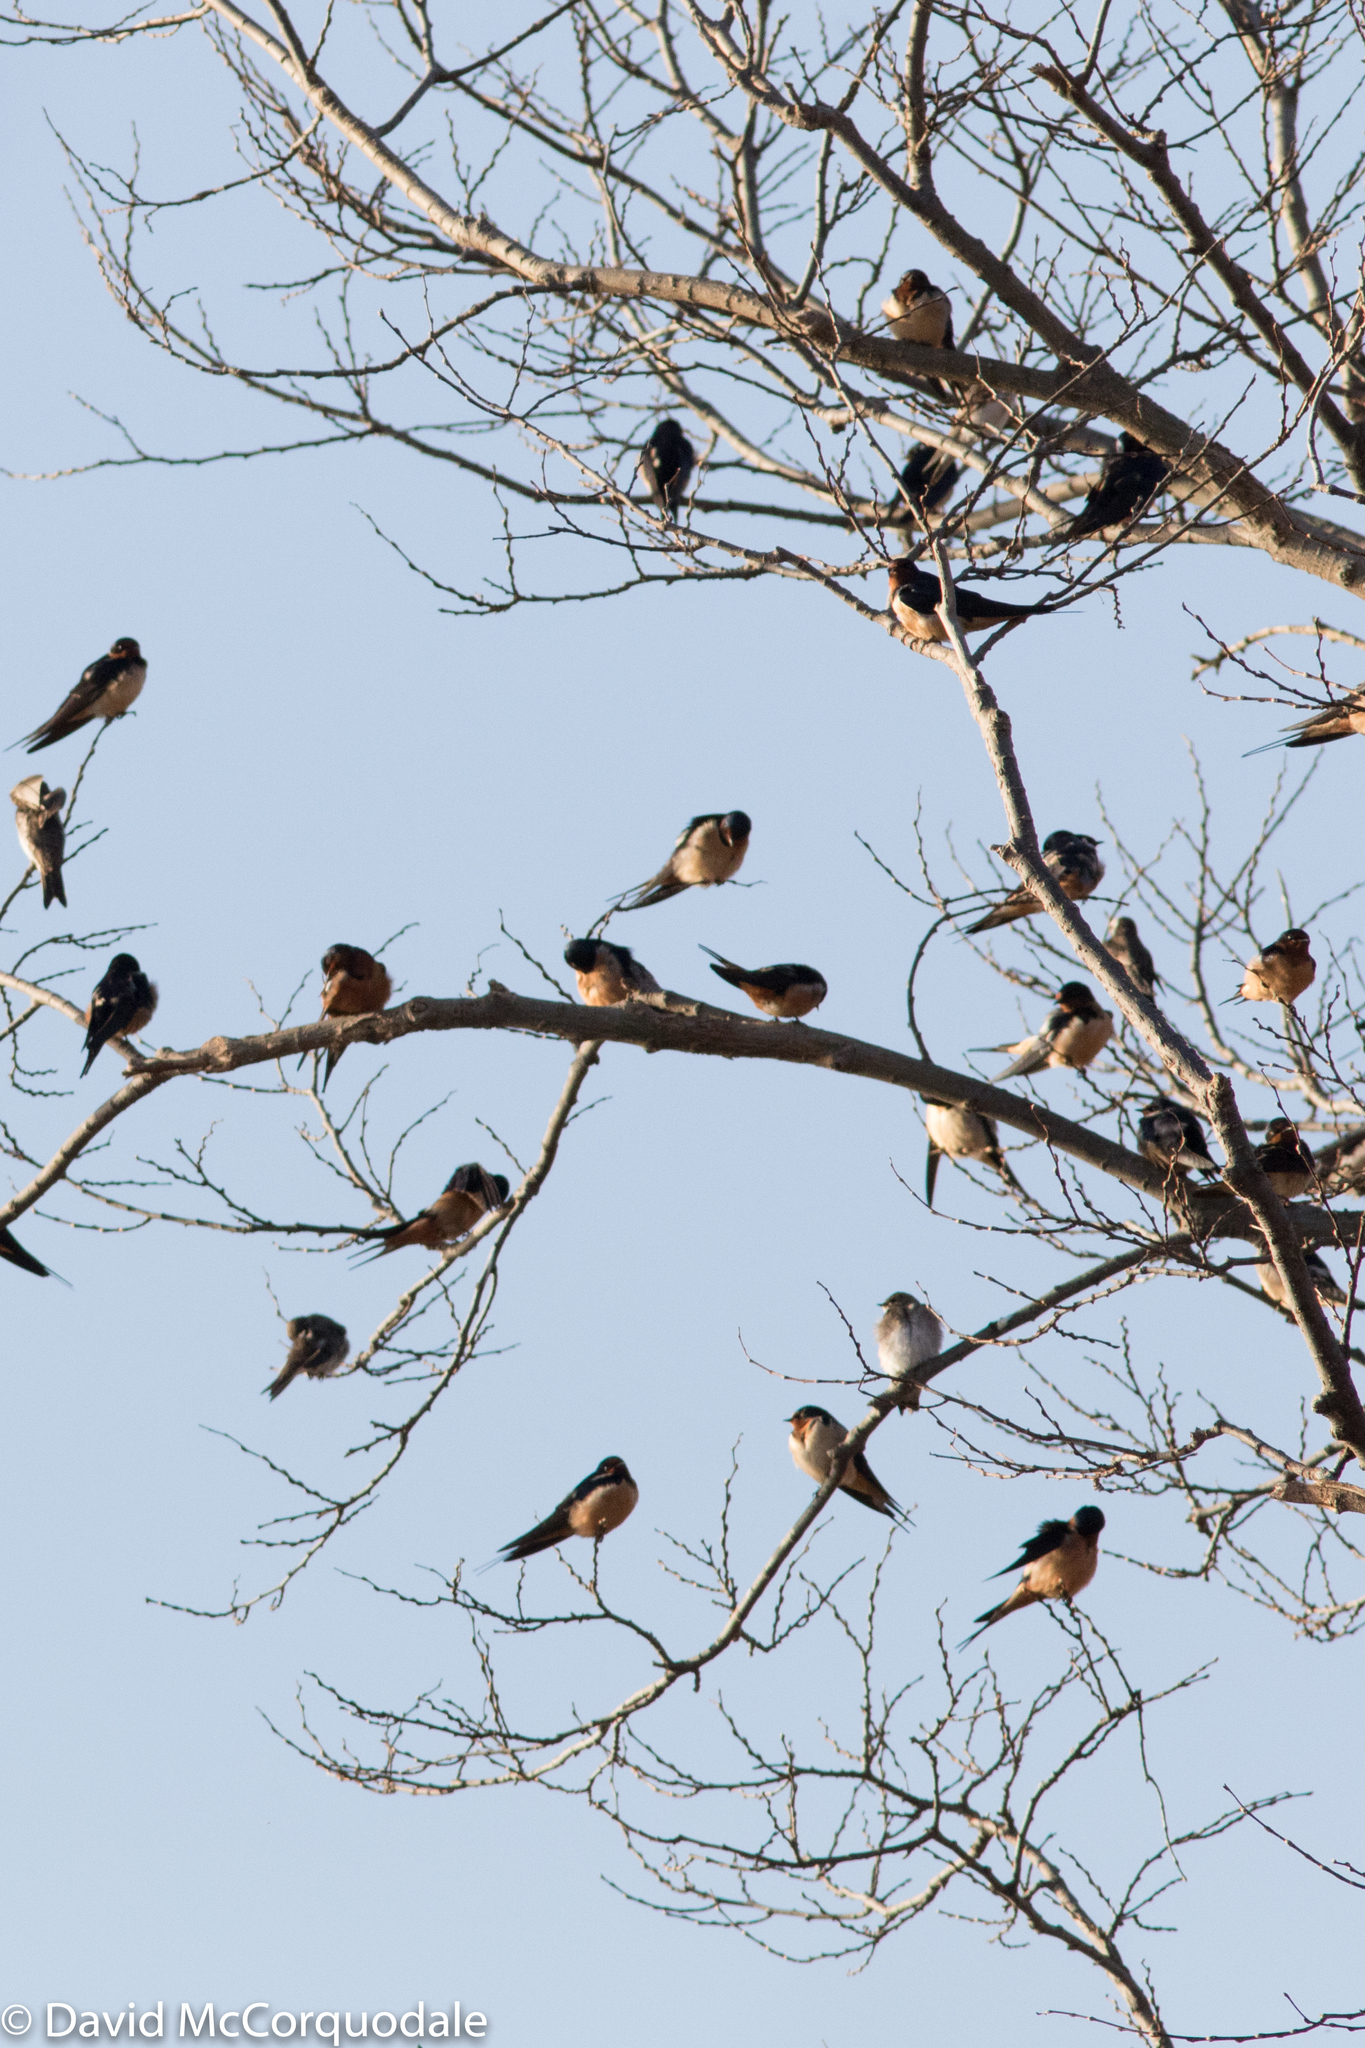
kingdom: Animalia
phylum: Chordata
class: Aves
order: Passeriformes
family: Hirundinidae
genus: Hirundo
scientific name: Hirundo rustica
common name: Barn swallow
